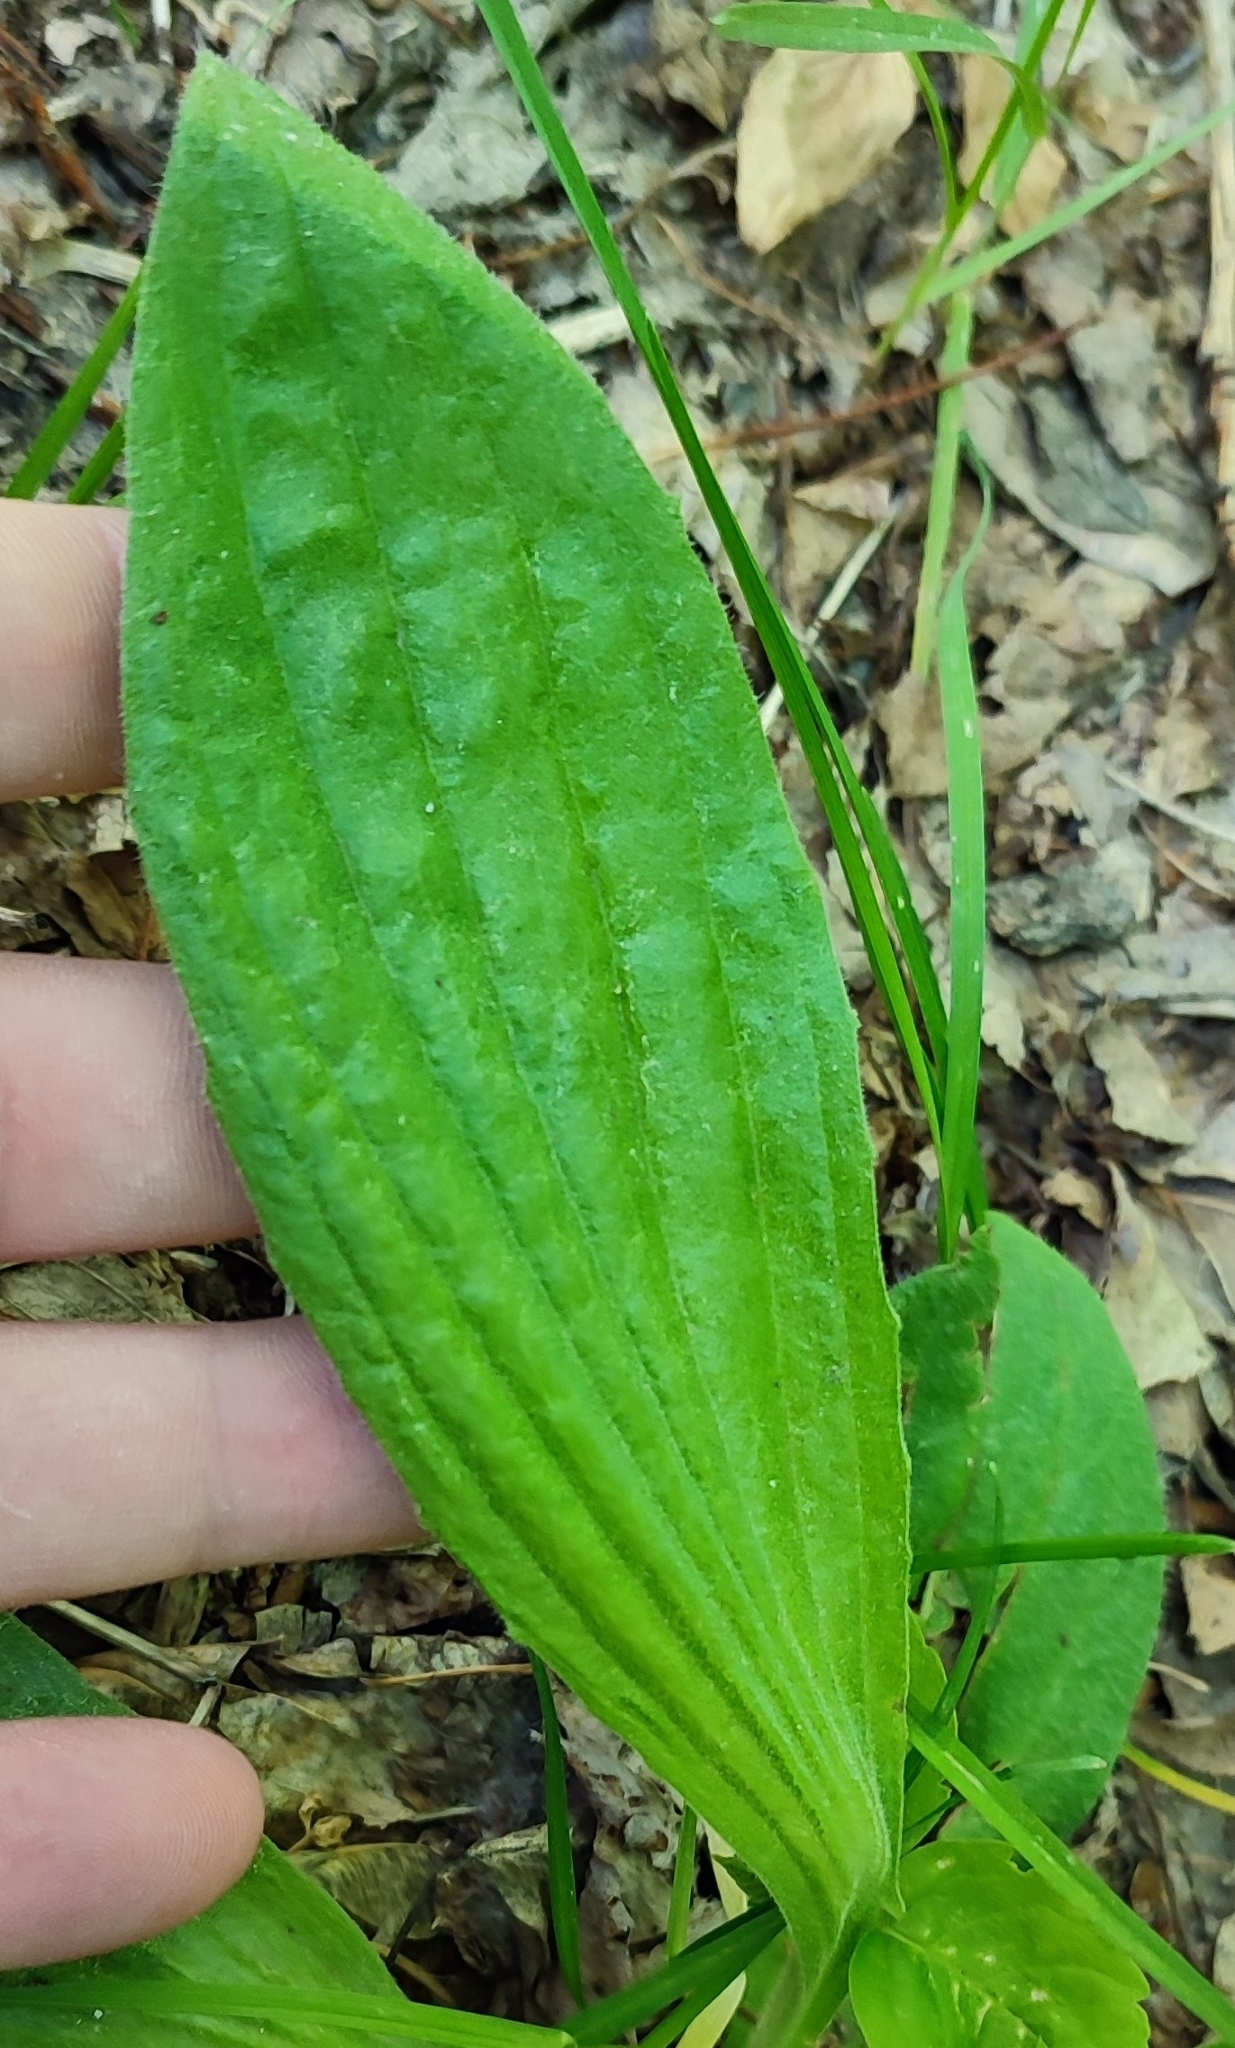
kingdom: Plantae
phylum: Tracheophyta
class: Magnoliopsida
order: Lamiales
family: Plantaginaceae
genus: Plantago
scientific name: Plantago urvillei
